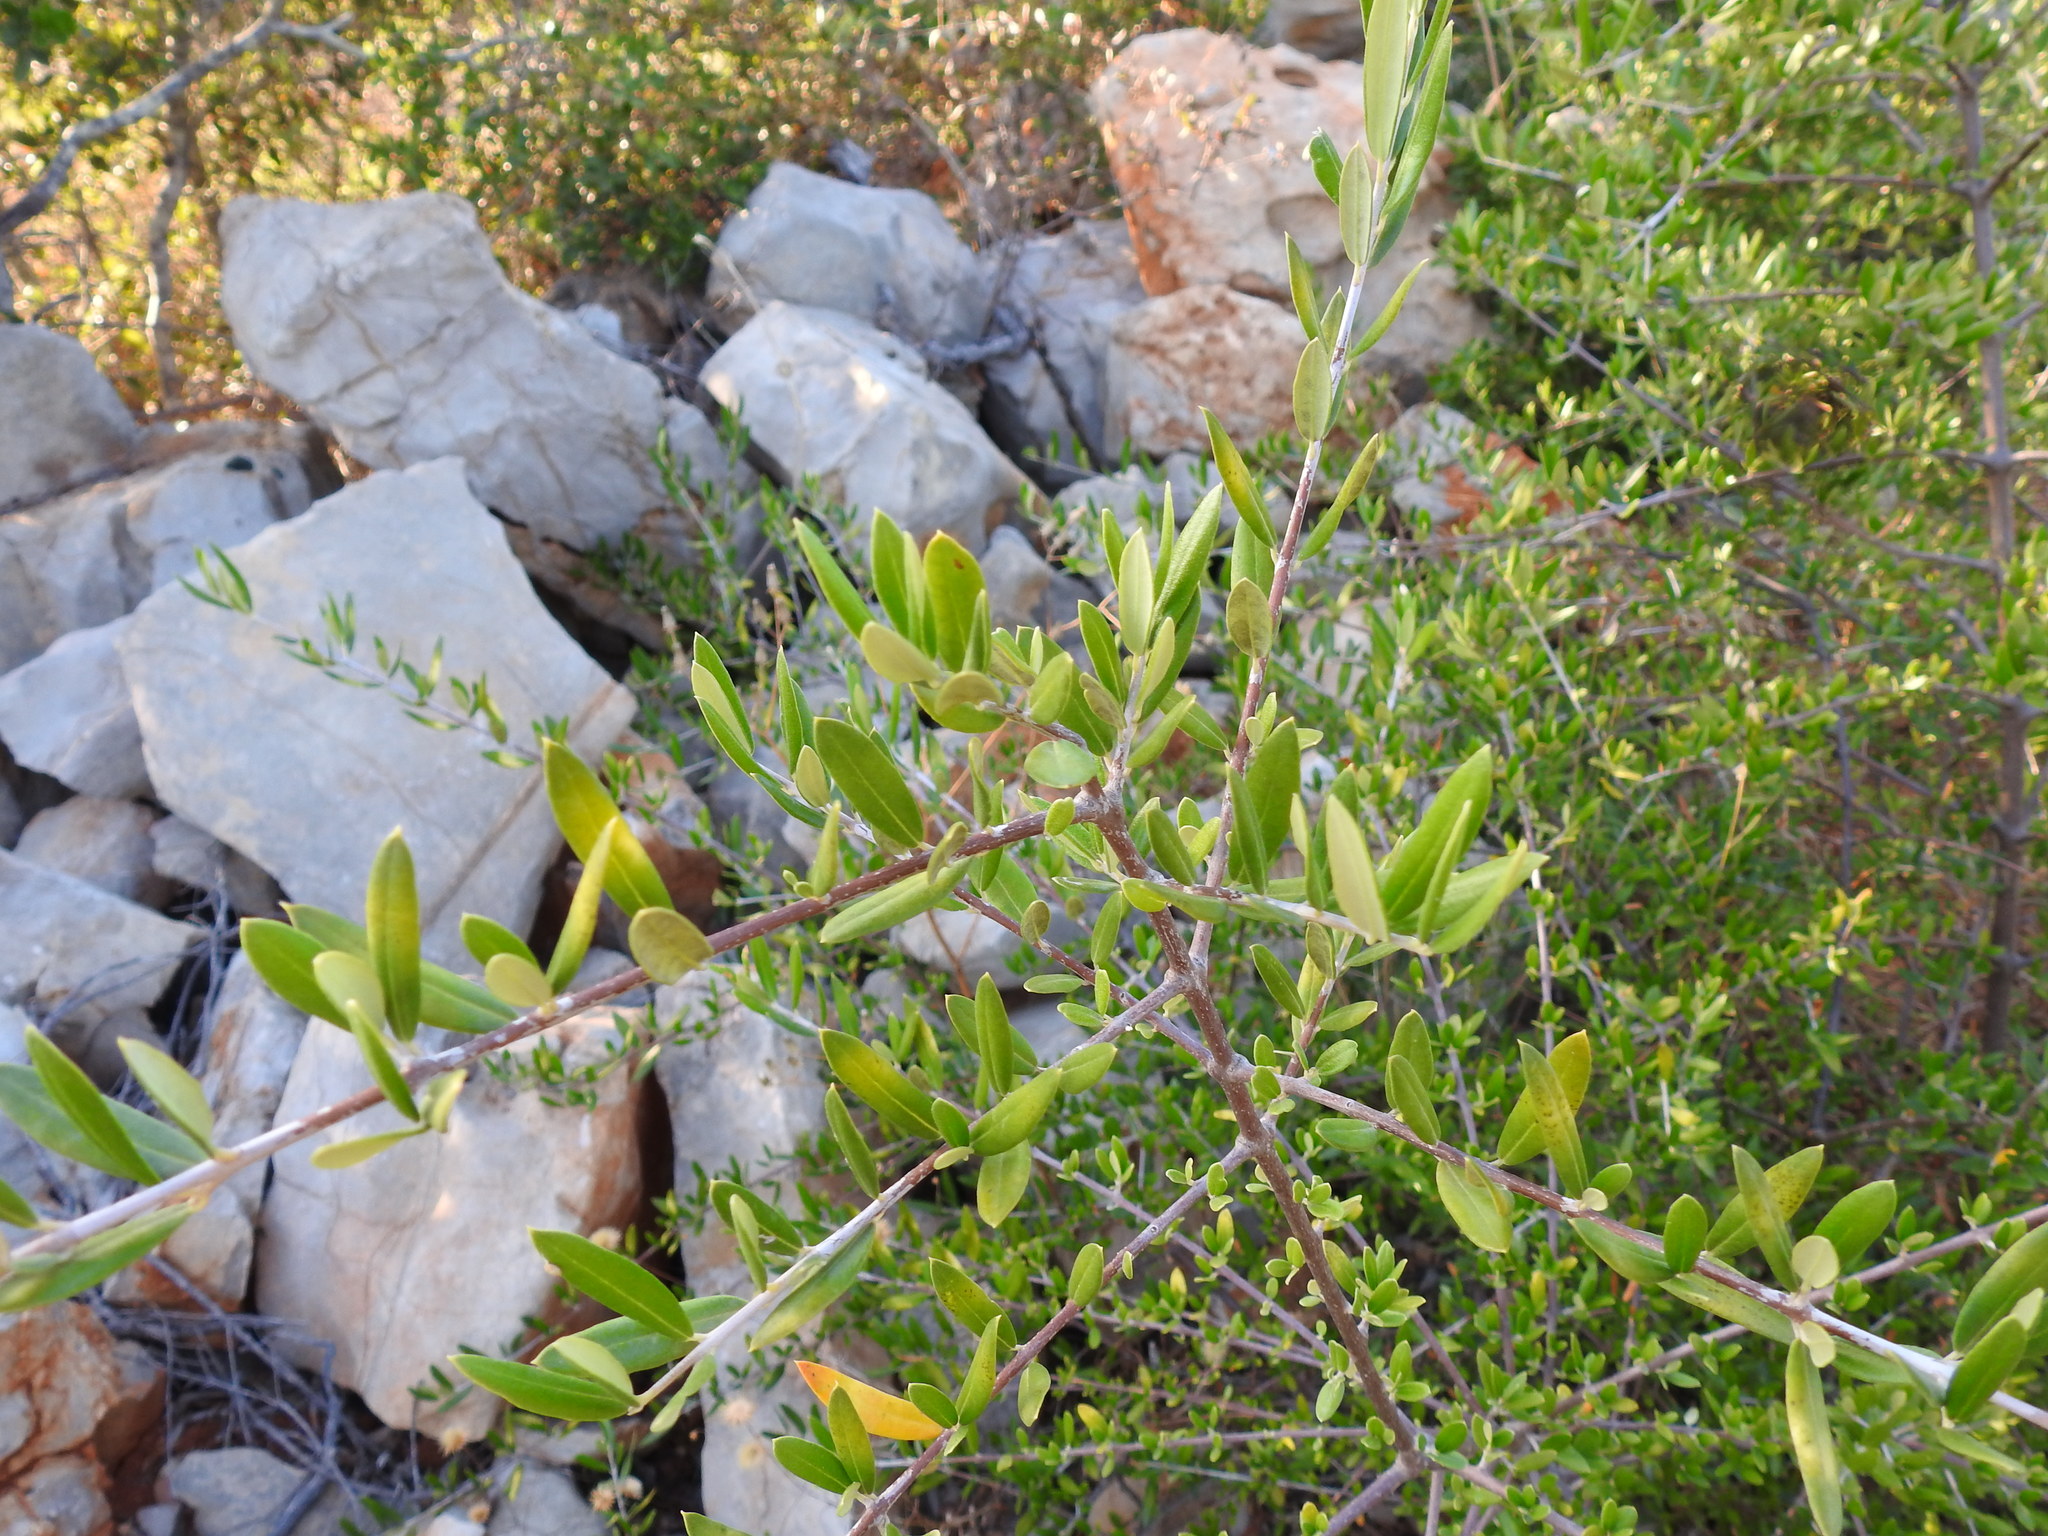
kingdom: Plantae
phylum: Tracheophyta
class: Magnoliopsida
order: Lamiales
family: Oleaceae
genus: Olea
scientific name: Olea europaea
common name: Olive
